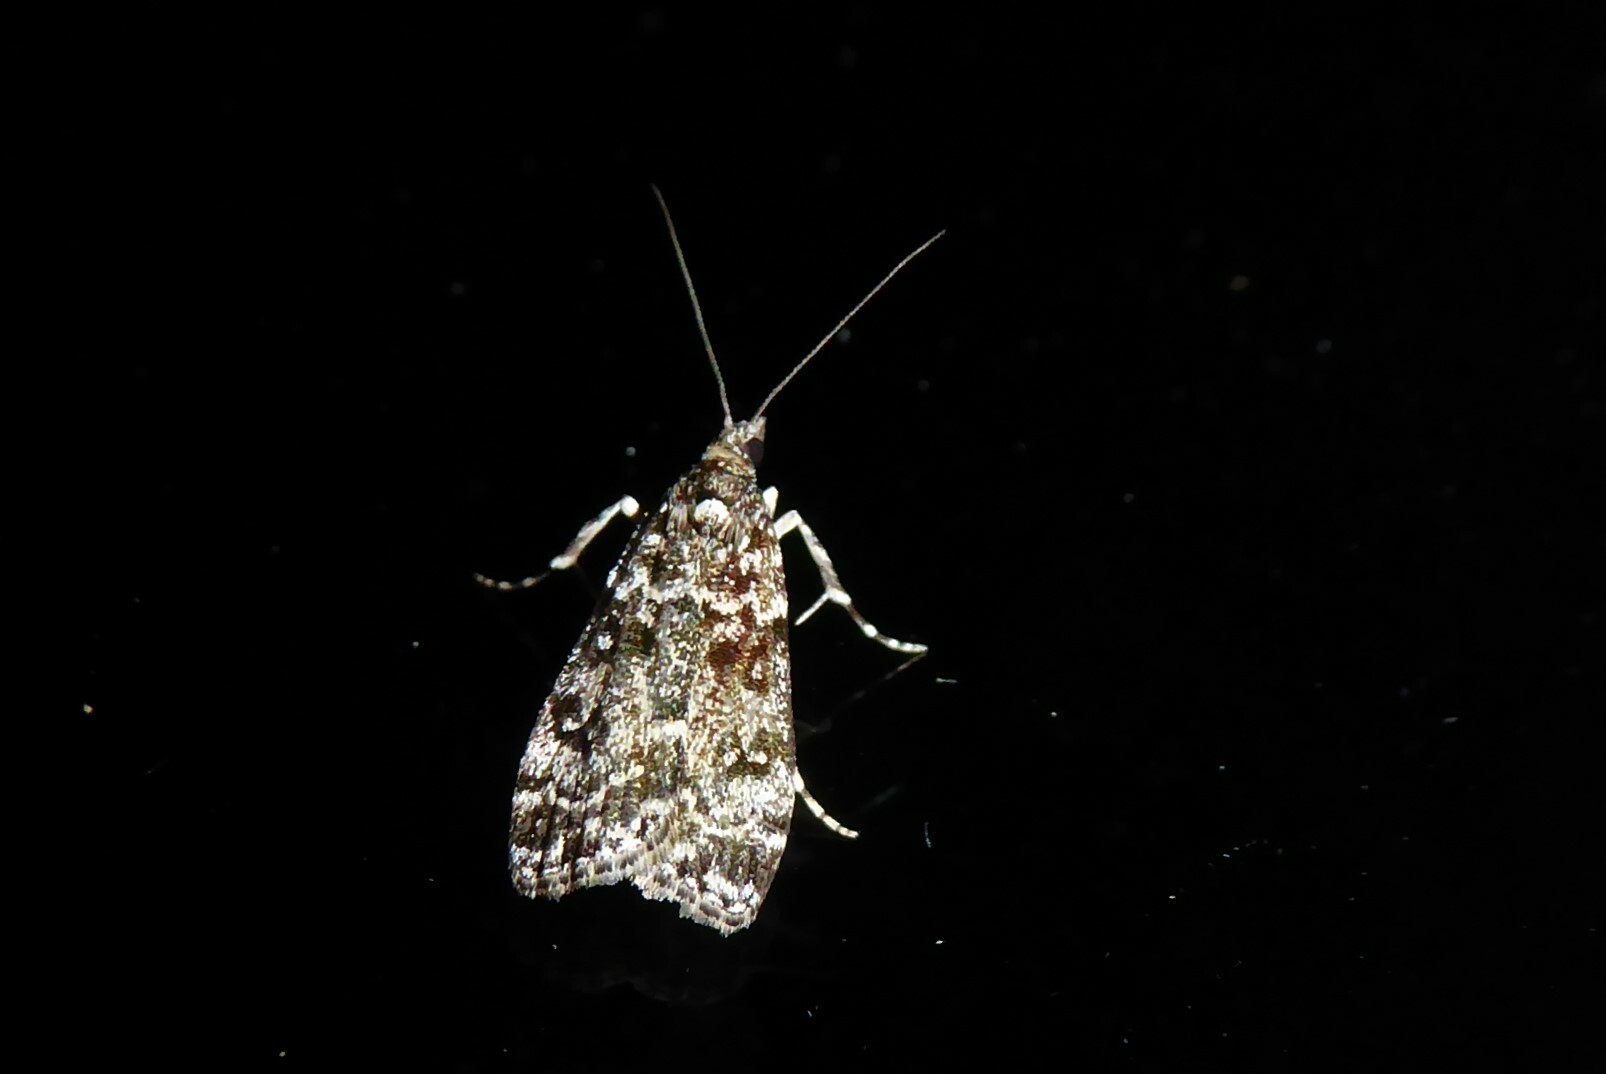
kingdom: Animalia
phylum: Arthropoda
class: Insecta
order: Lepidoptera
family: Crambidae
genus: Eudonia
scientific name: Eudonia philerga
